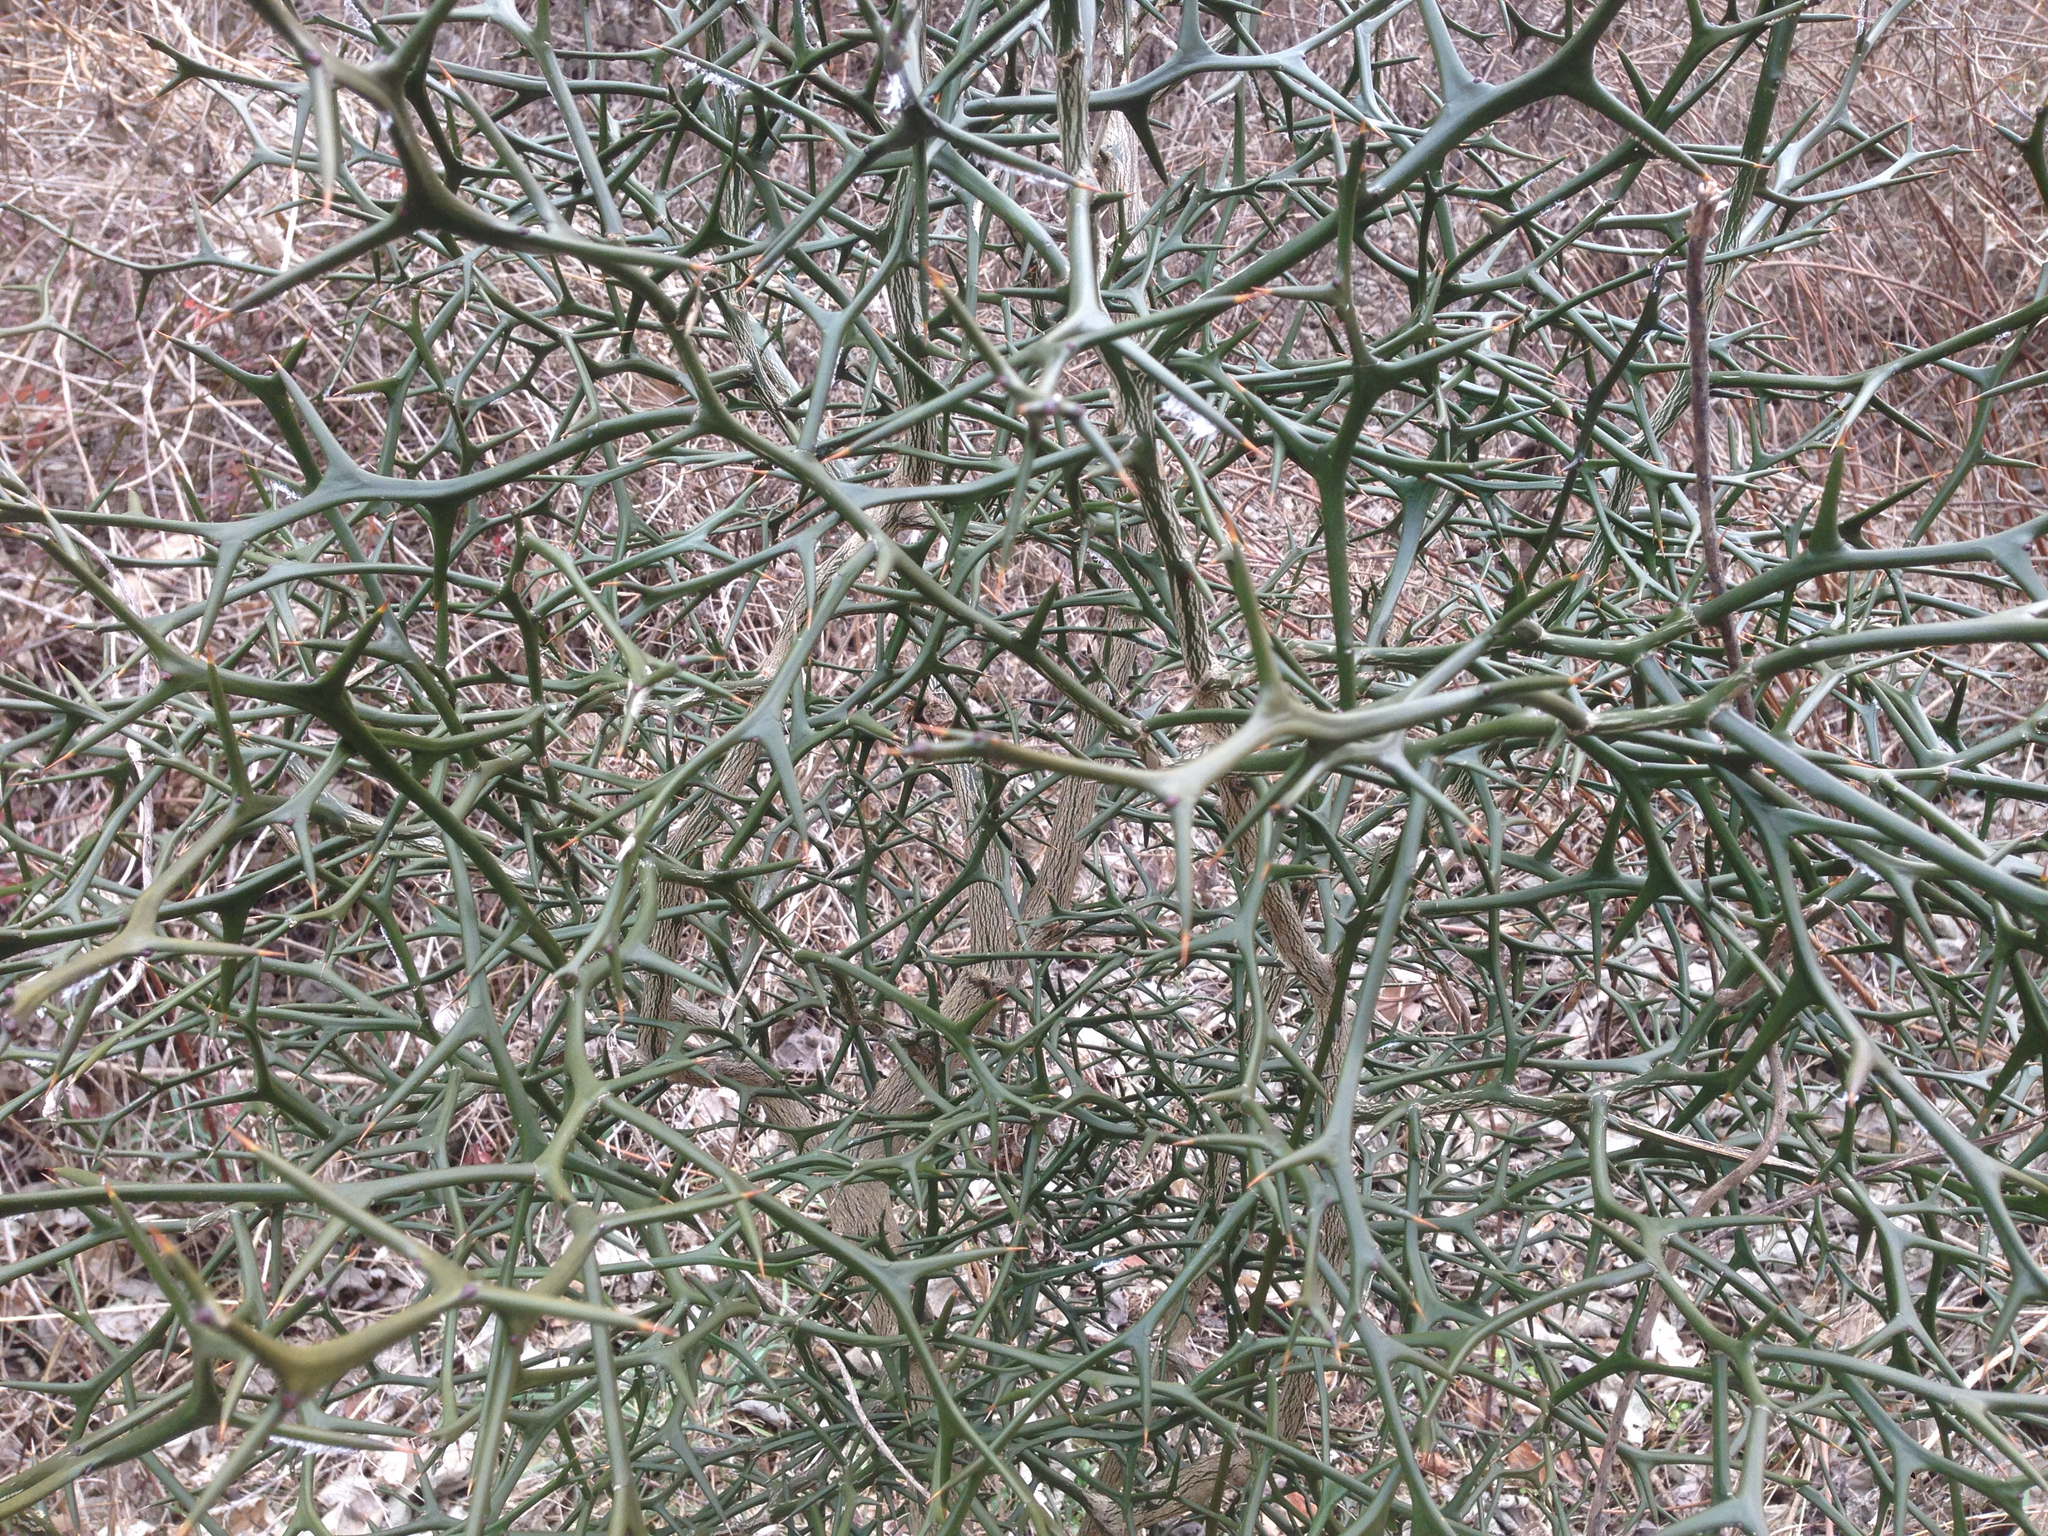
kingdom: Plantae
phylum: Tracheophyta
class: Magnoliopsida
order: Sapindales
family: Rutaceae
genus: Citrus
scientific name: Citrus trifoliata
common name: Japanese bitter-orange
